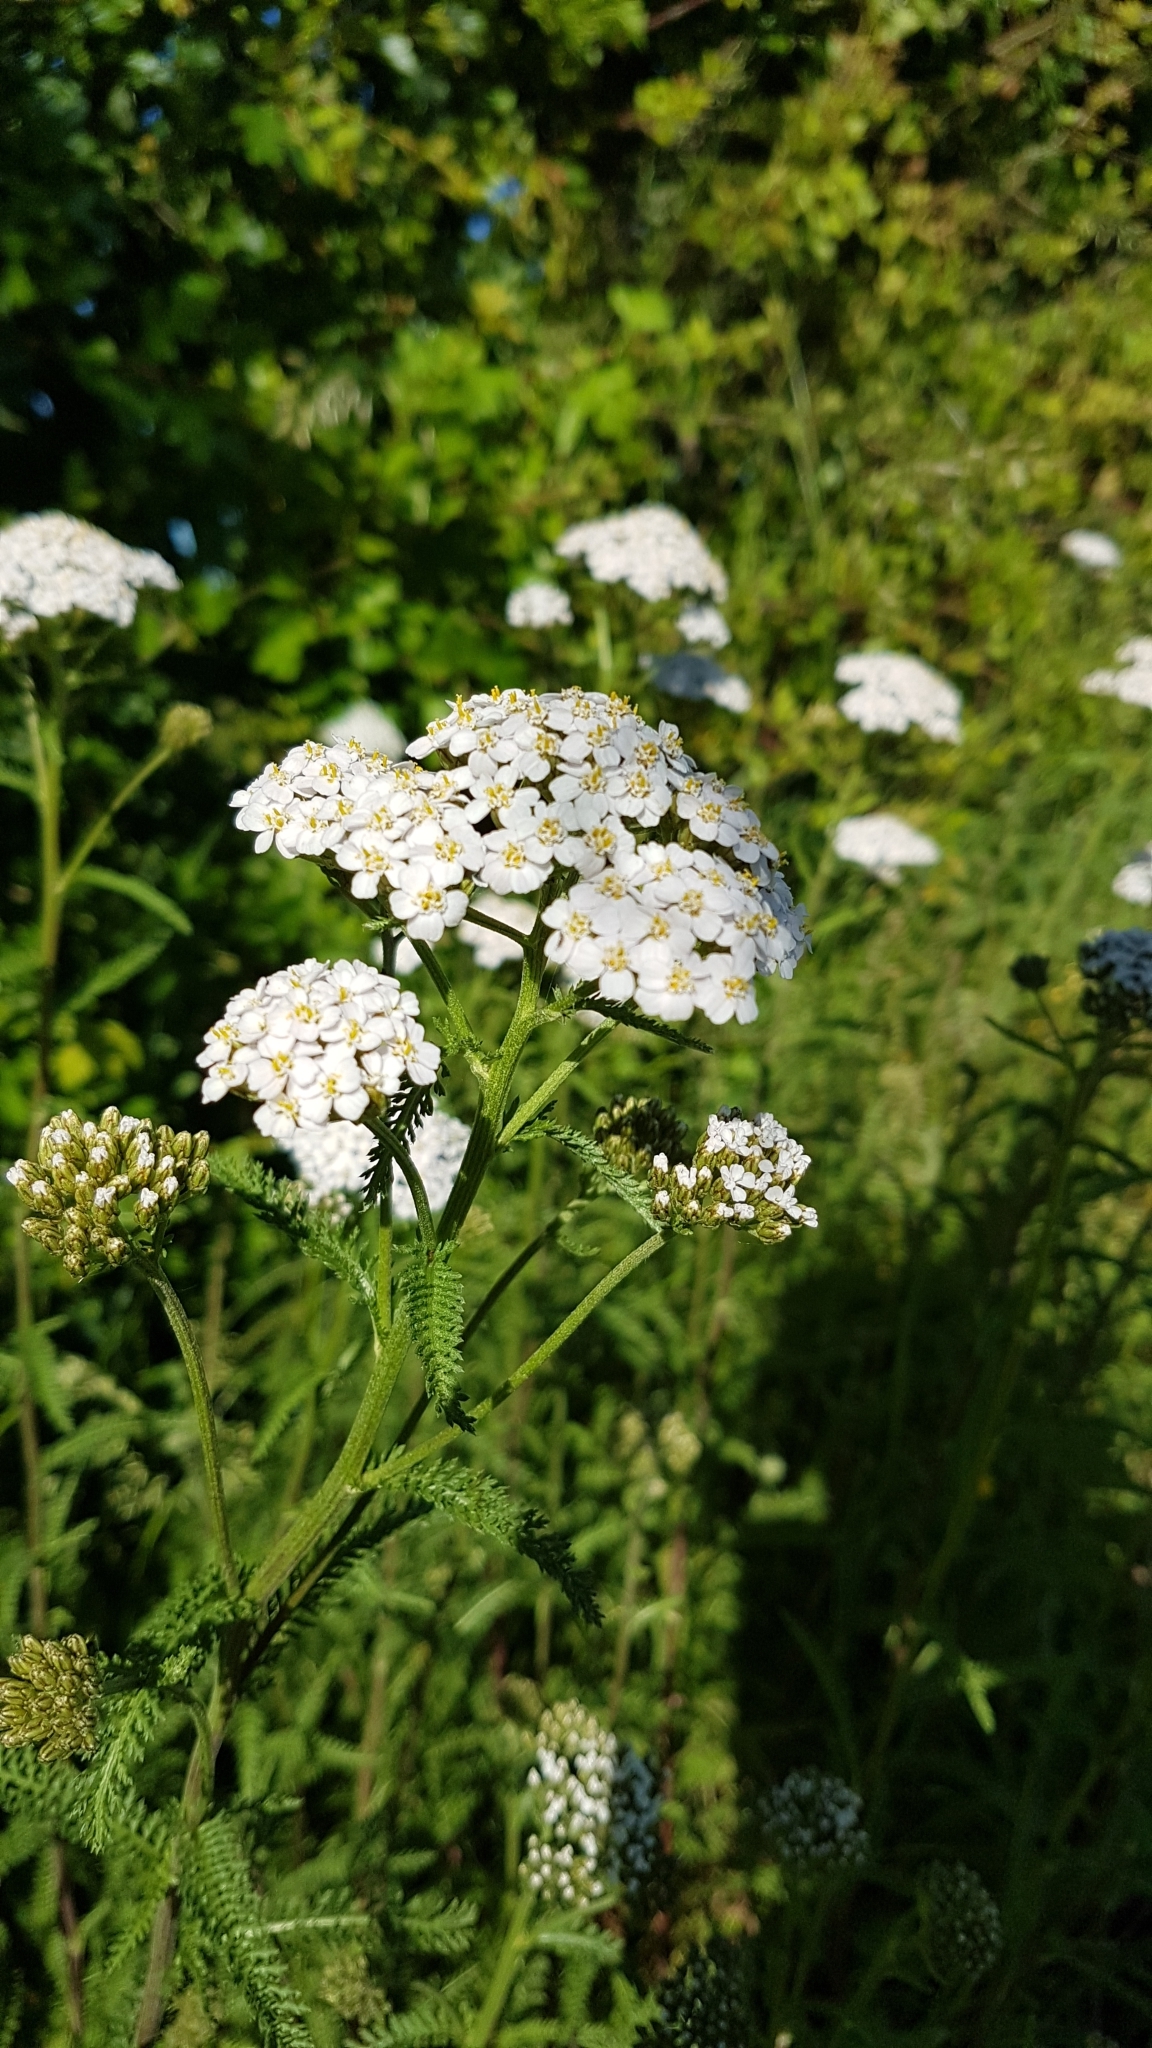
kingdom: Plantae
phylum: Tracheophyta
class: Magnoliopsida
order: Asterales
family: Asteraceae
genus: Achillea
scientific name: Achillea millefolium
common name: Yarrow
